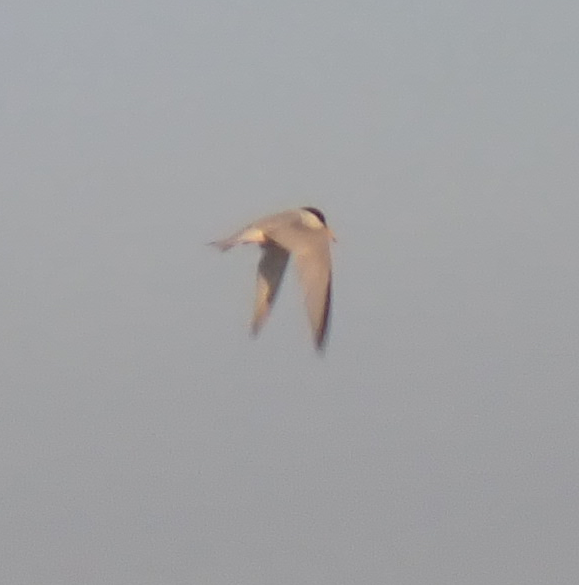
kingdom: Animalia
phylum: Chordata
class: Aves
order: Charadriiformes
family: Laridae
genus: Sternula
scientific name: Sternula antillarum
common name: Least tern
